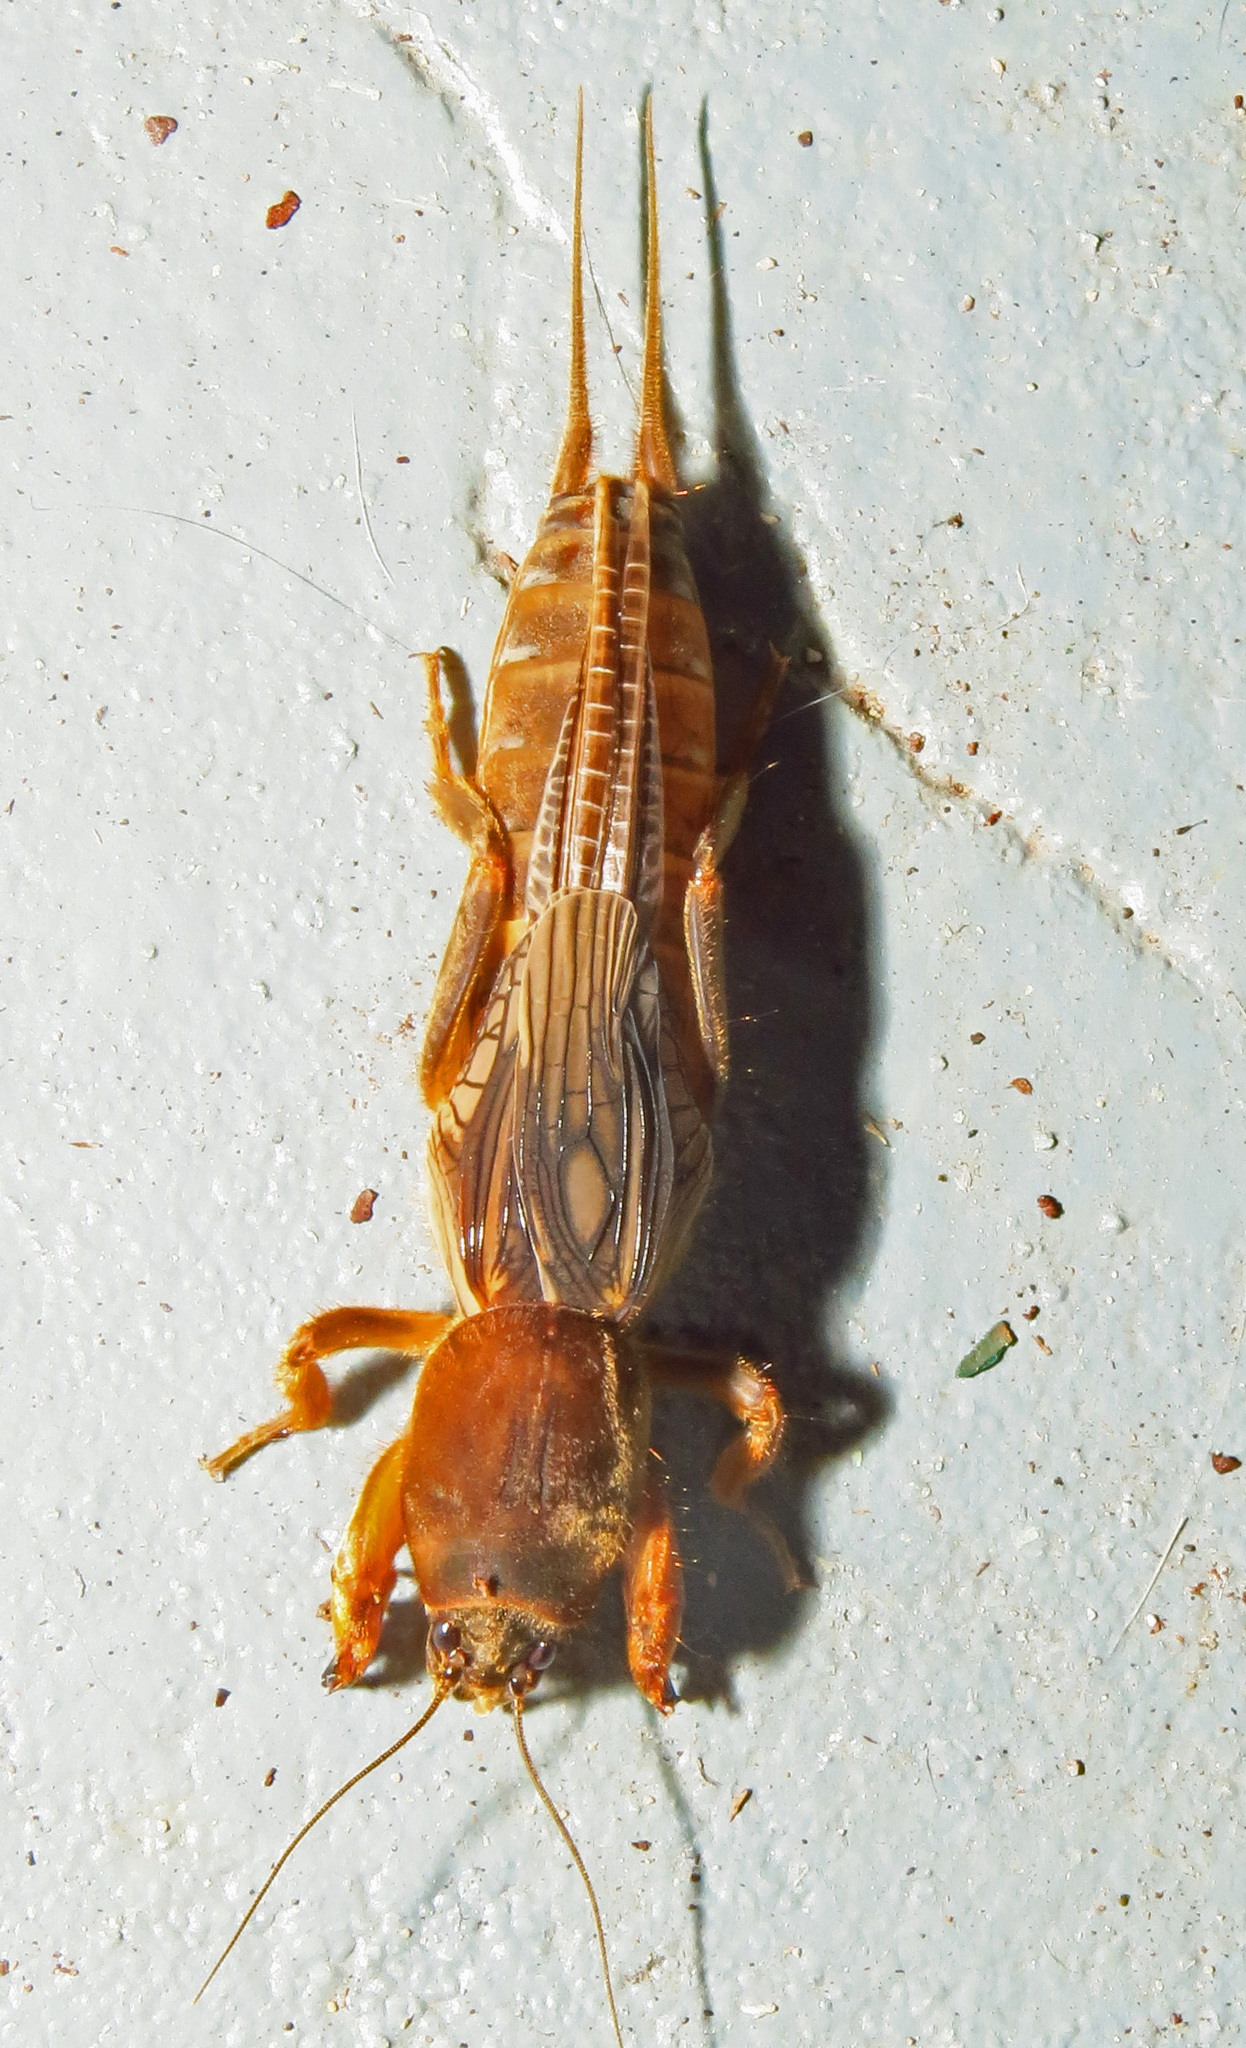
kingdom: Animalia
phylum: Arthropoda
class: Insecta
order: Orthoptera
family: Gryllotalpidae
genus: Neocurtilla
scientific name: Neocurtilla hexadactyla
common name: Northern mole cricket
